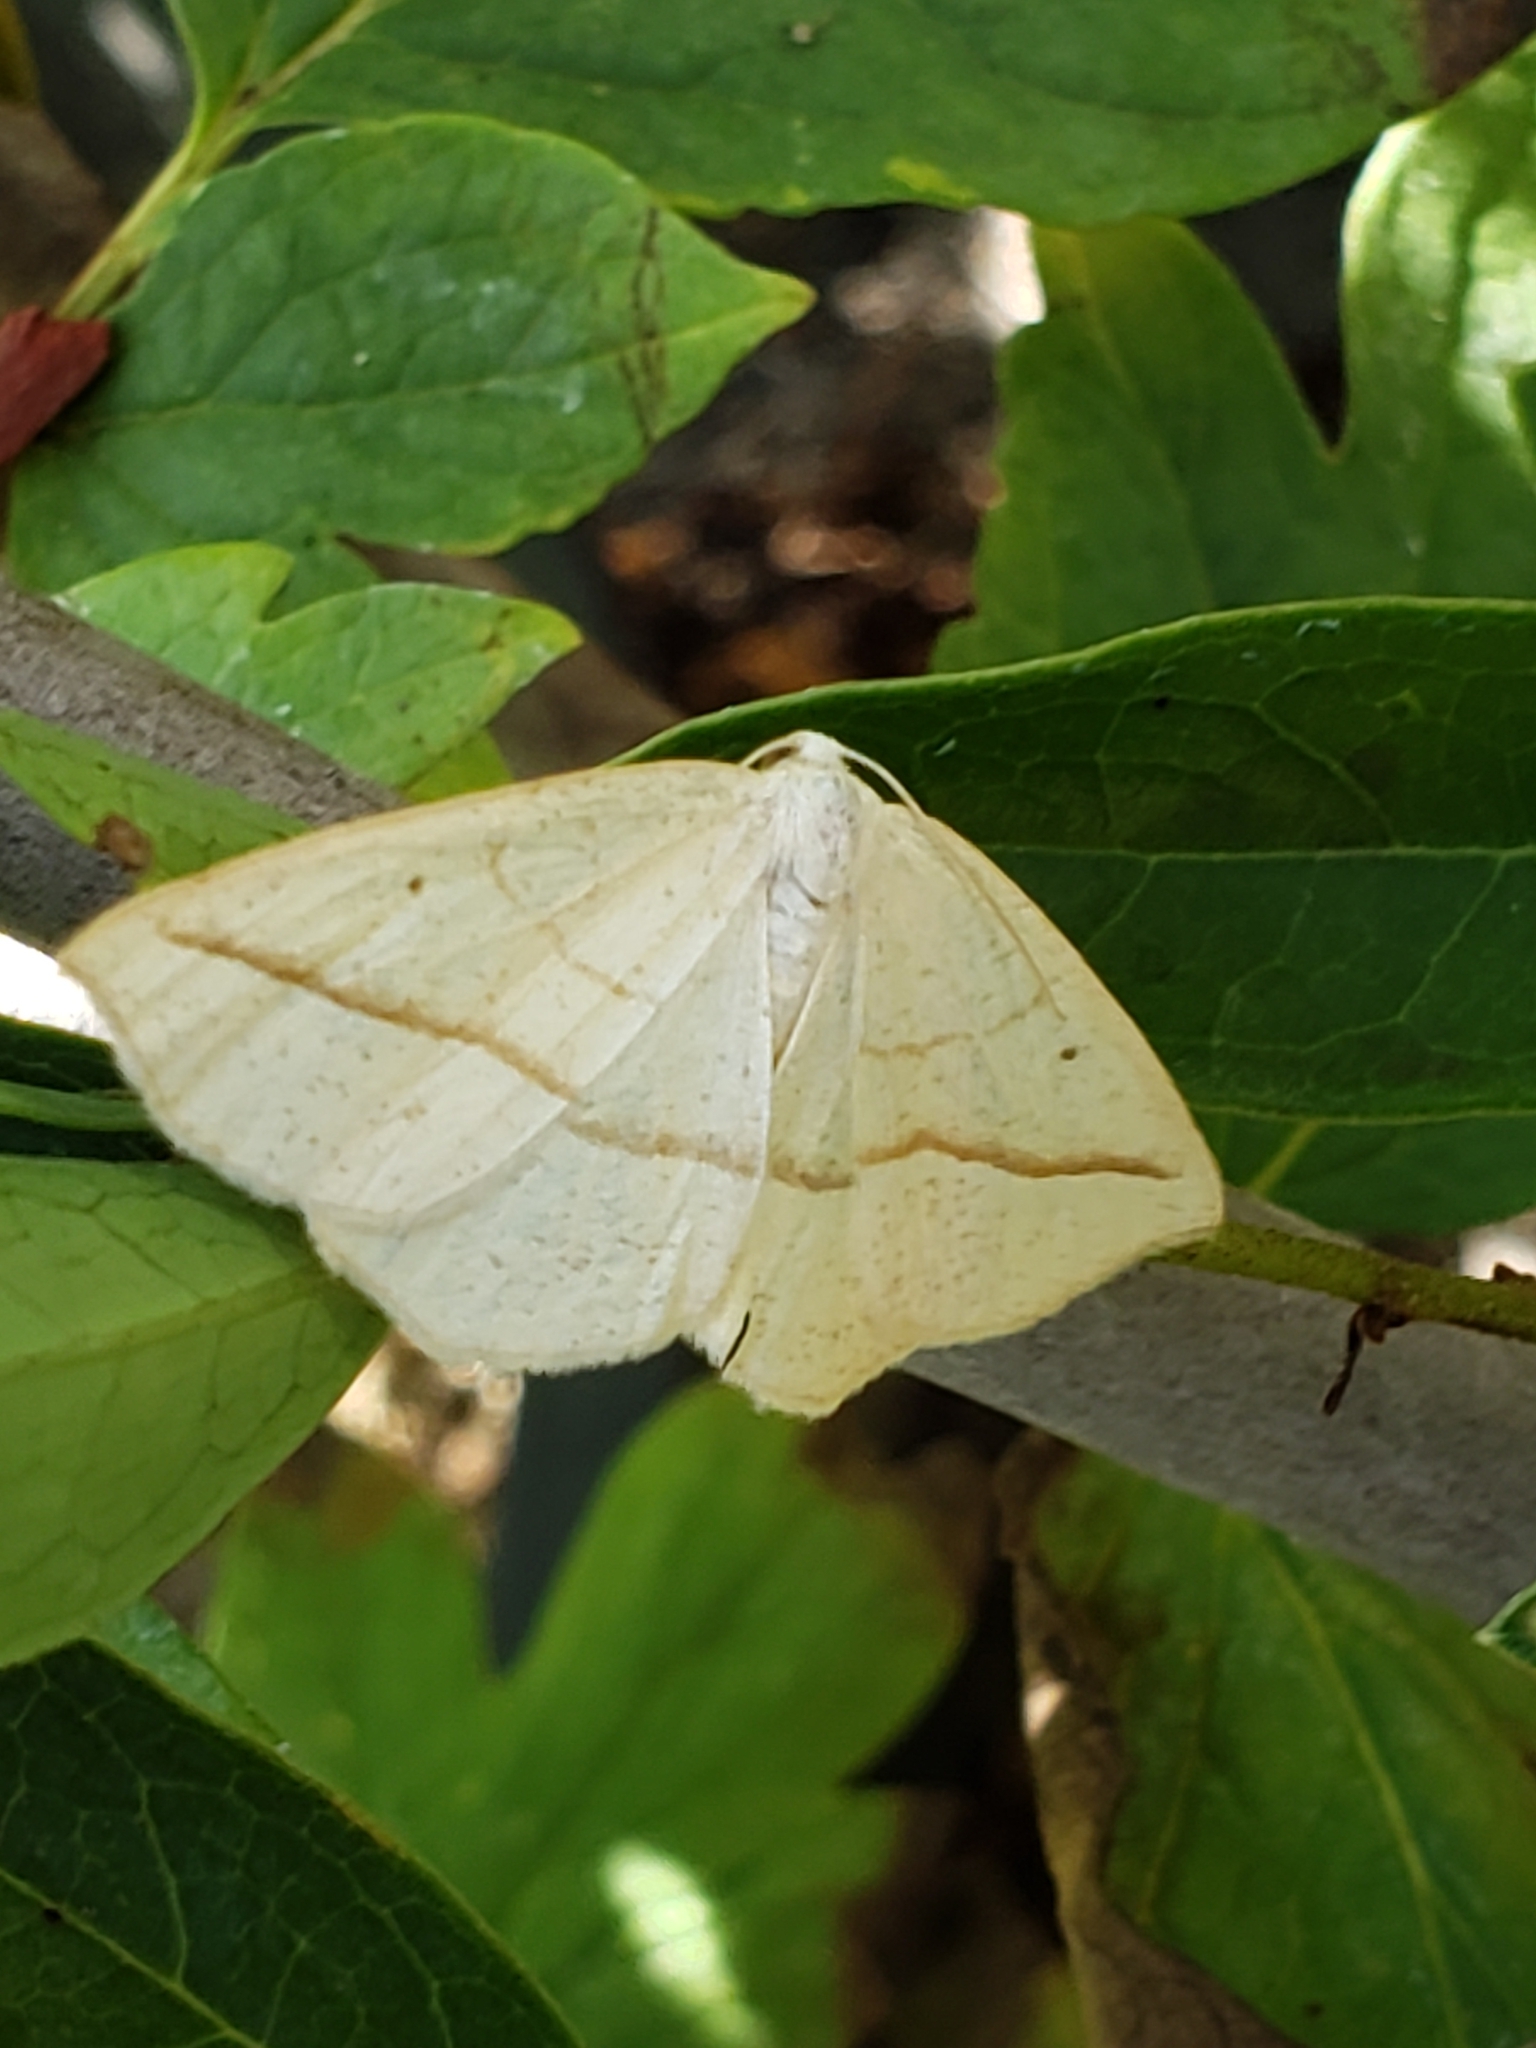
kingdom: Animalia
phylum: Arthropoda
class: Insecta
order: Lepidoptera
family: Geometridae
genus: Eusarca
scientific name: Eusarca confusaria
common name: Confused eusarca
